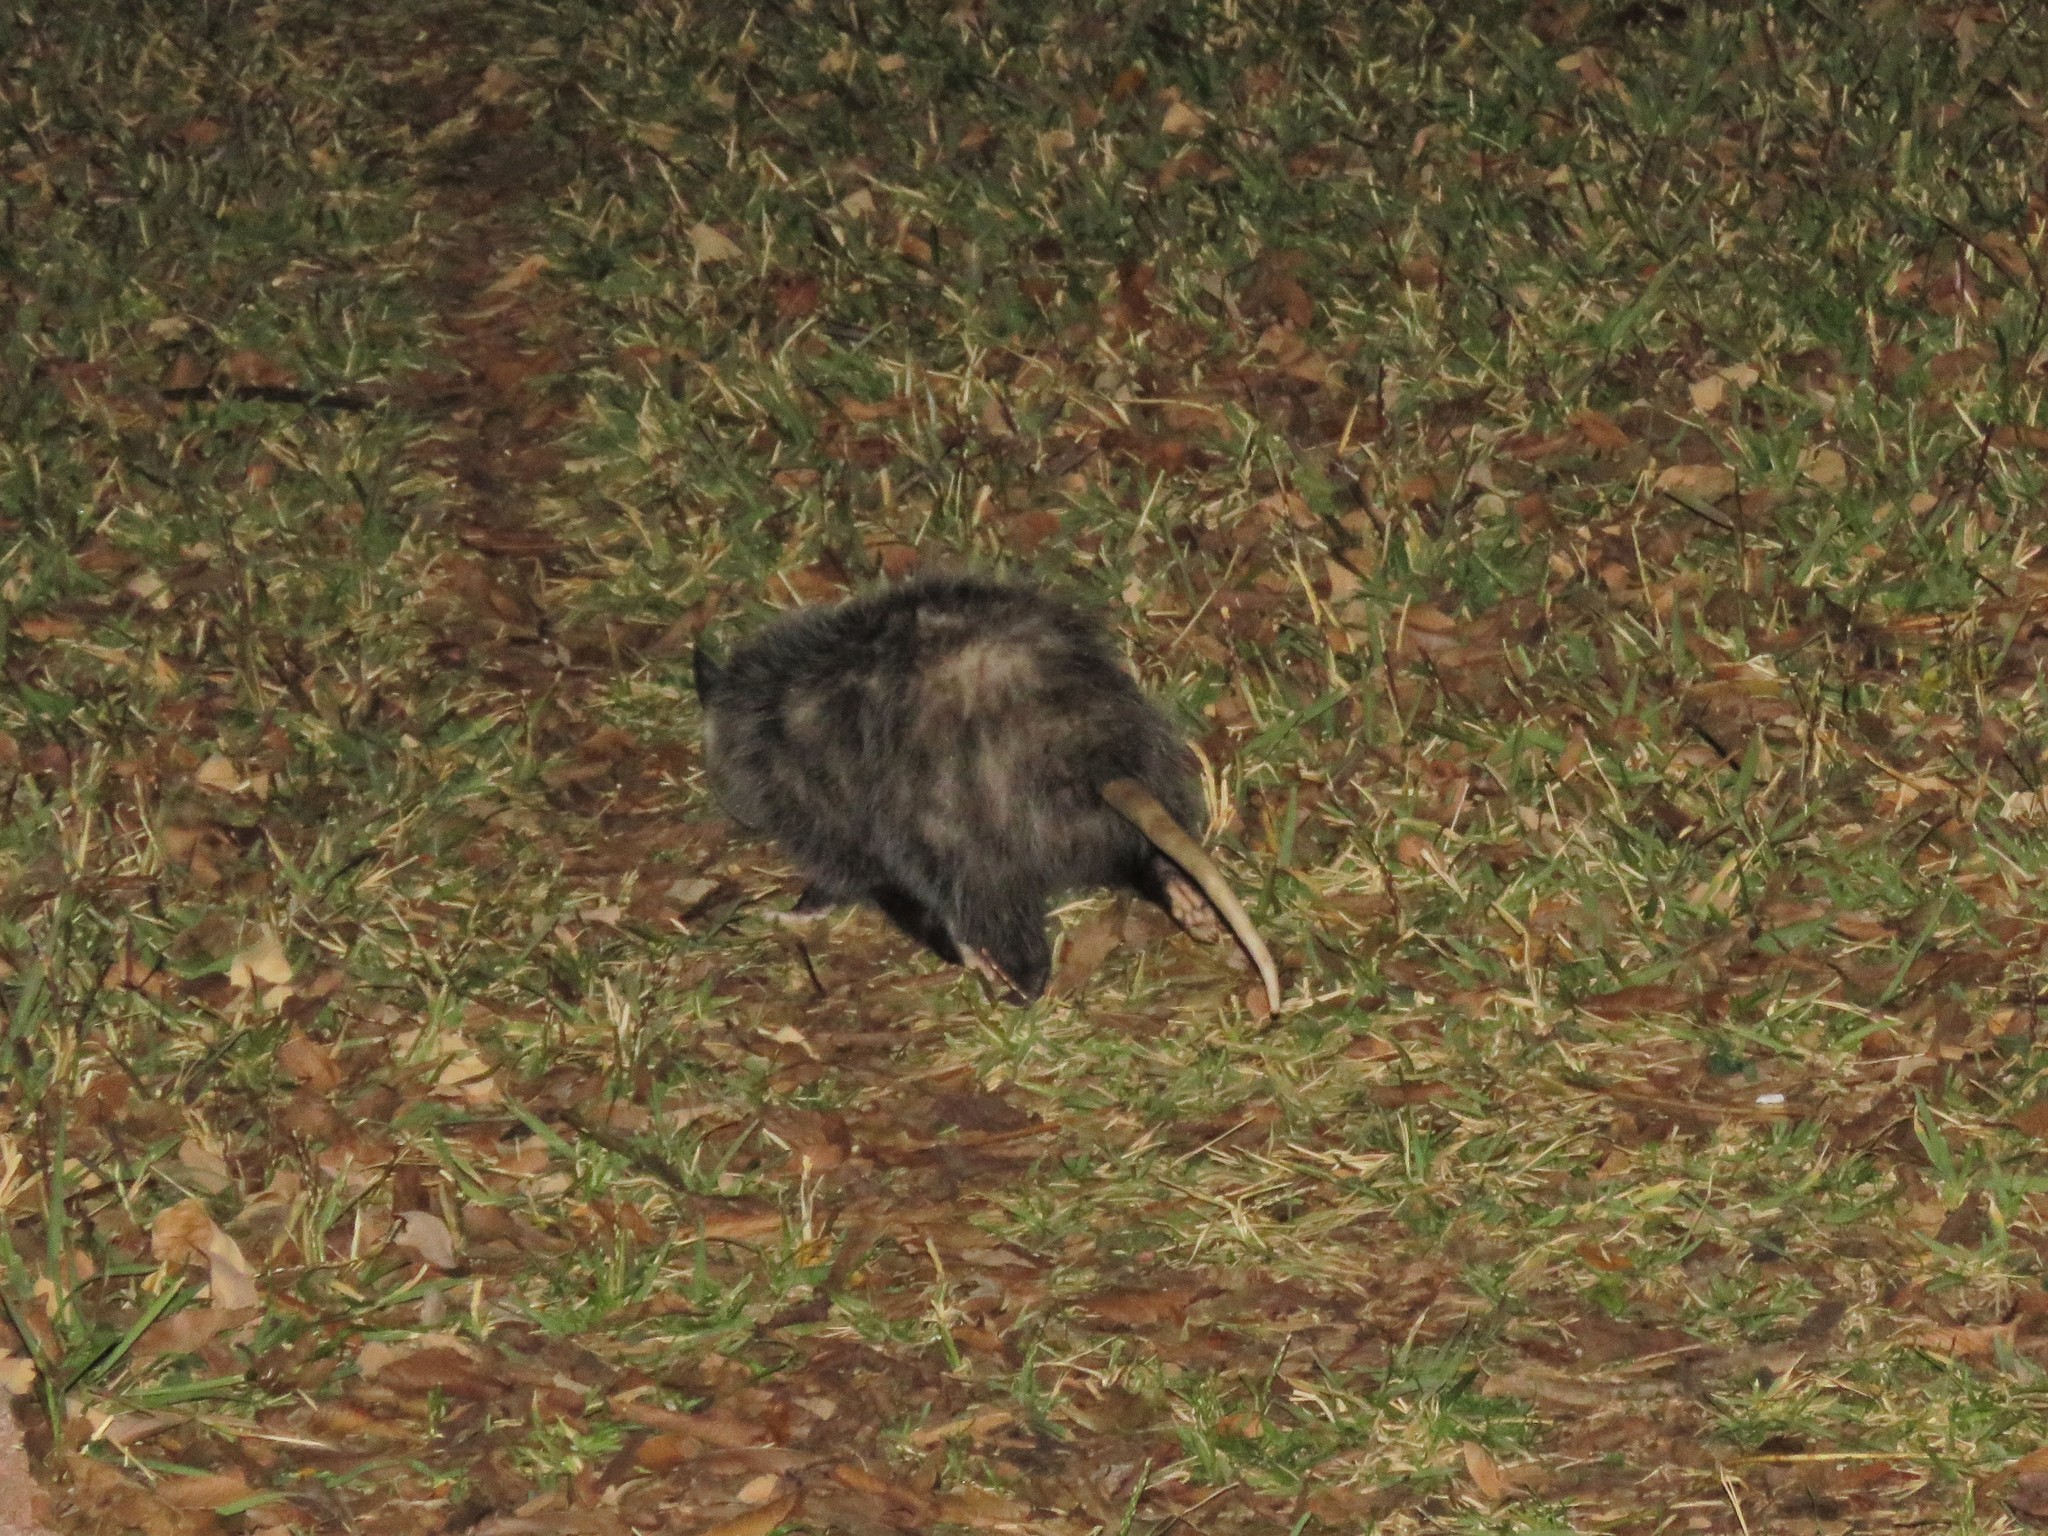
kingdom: Animalia
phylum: Chordata
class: Mammalia
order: Didelphimorphia
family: Didelphidae
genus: Didelphis
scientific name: Didelphis virginiana
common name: Virginia opossum
